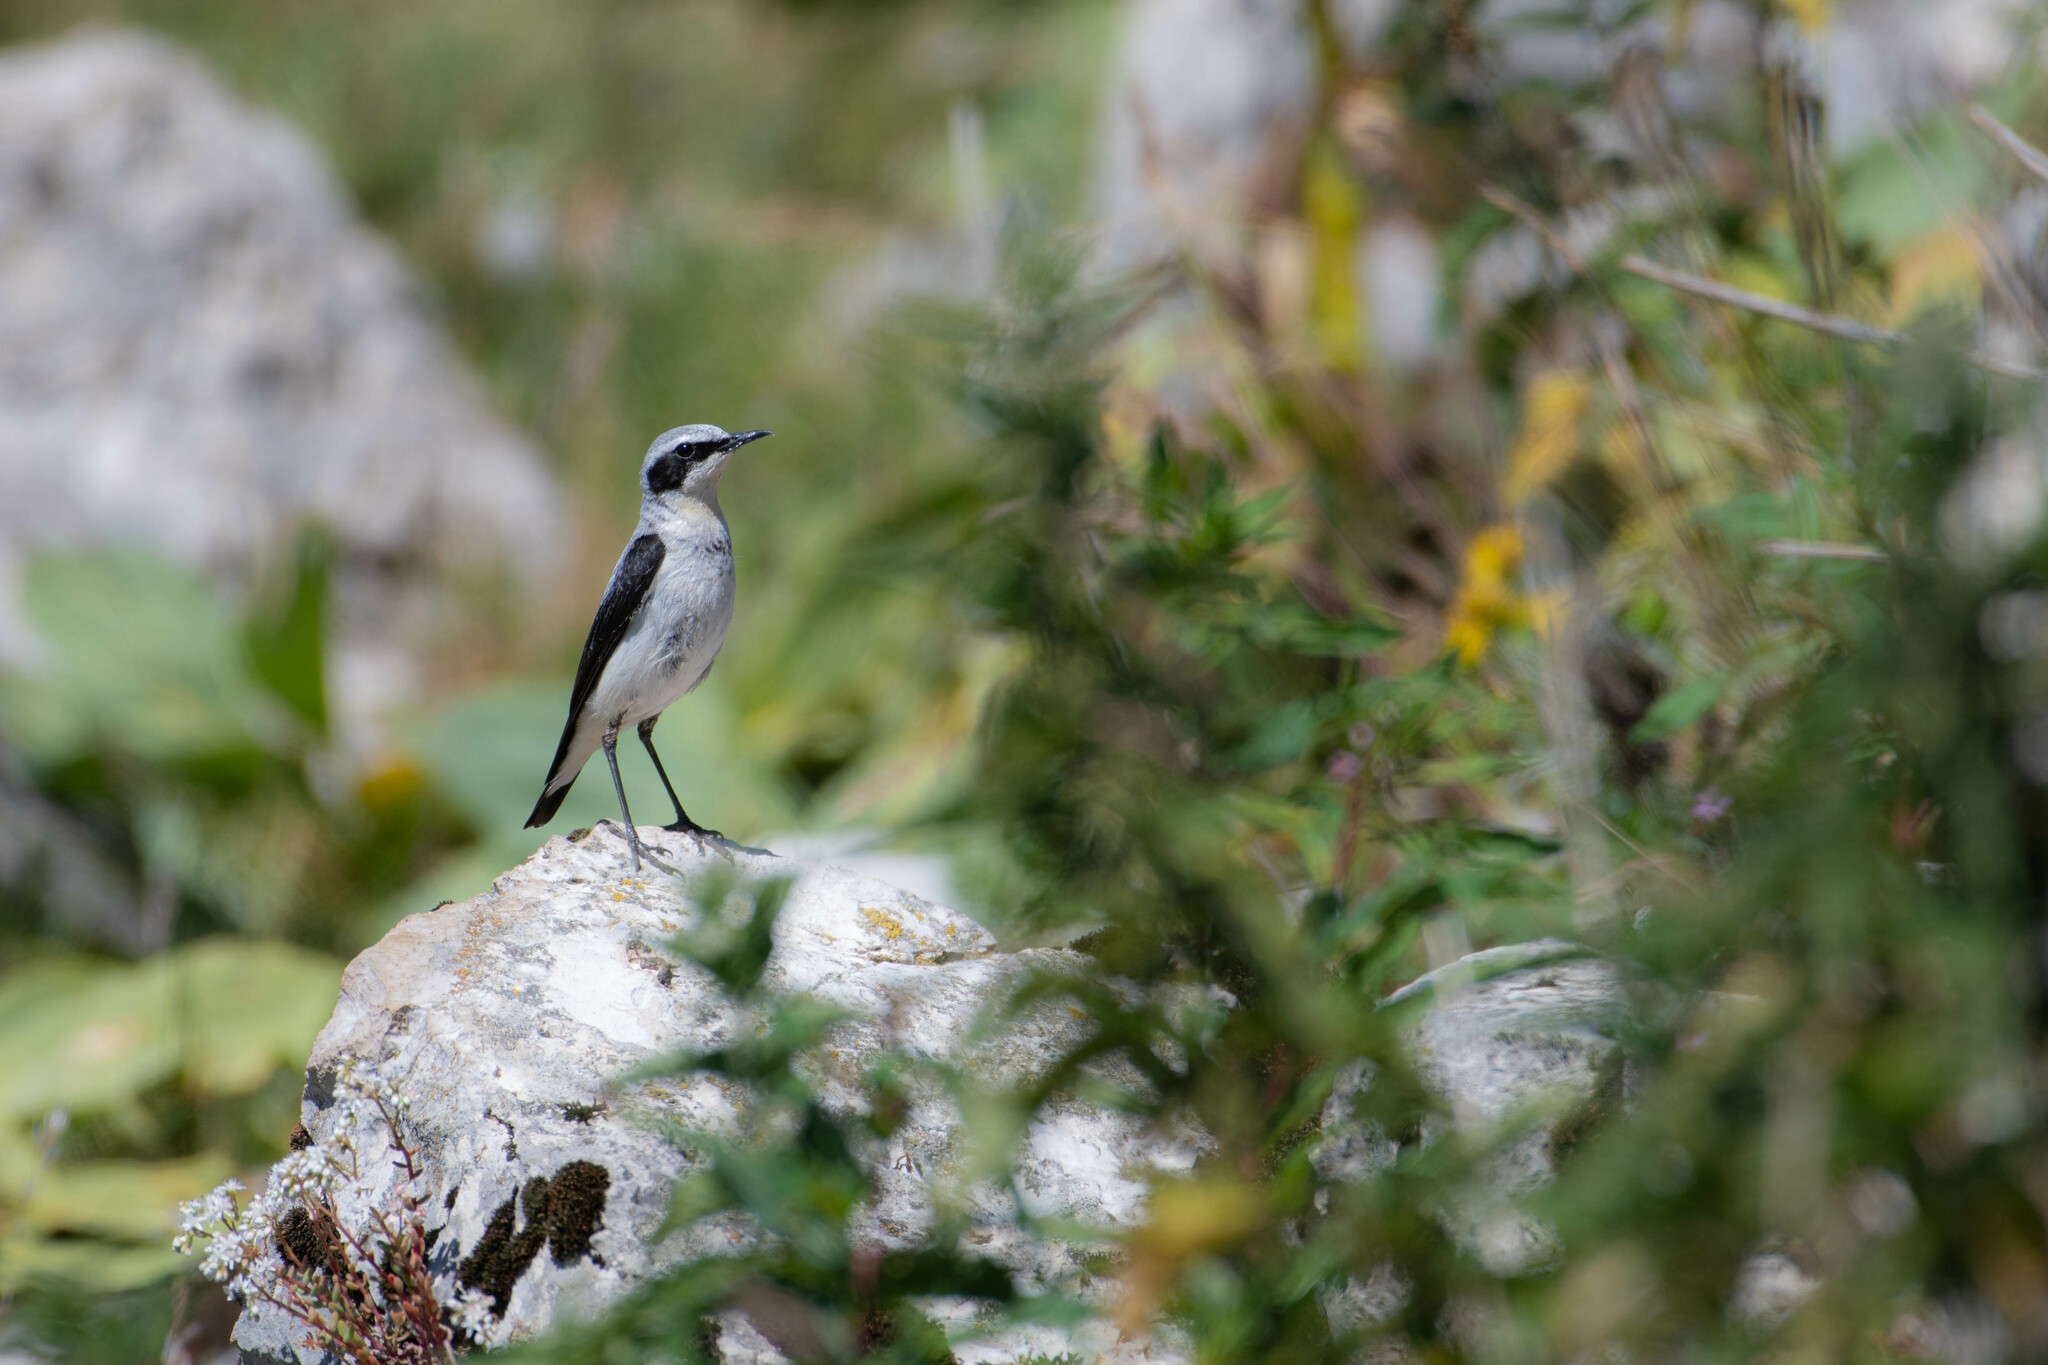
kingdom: Animalia
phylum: Chordata
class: Aves
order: Passeriformes
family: Muscicapidae
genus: Oenanthe
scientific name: Oenanthe oenanthe
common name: Northern wheatear
